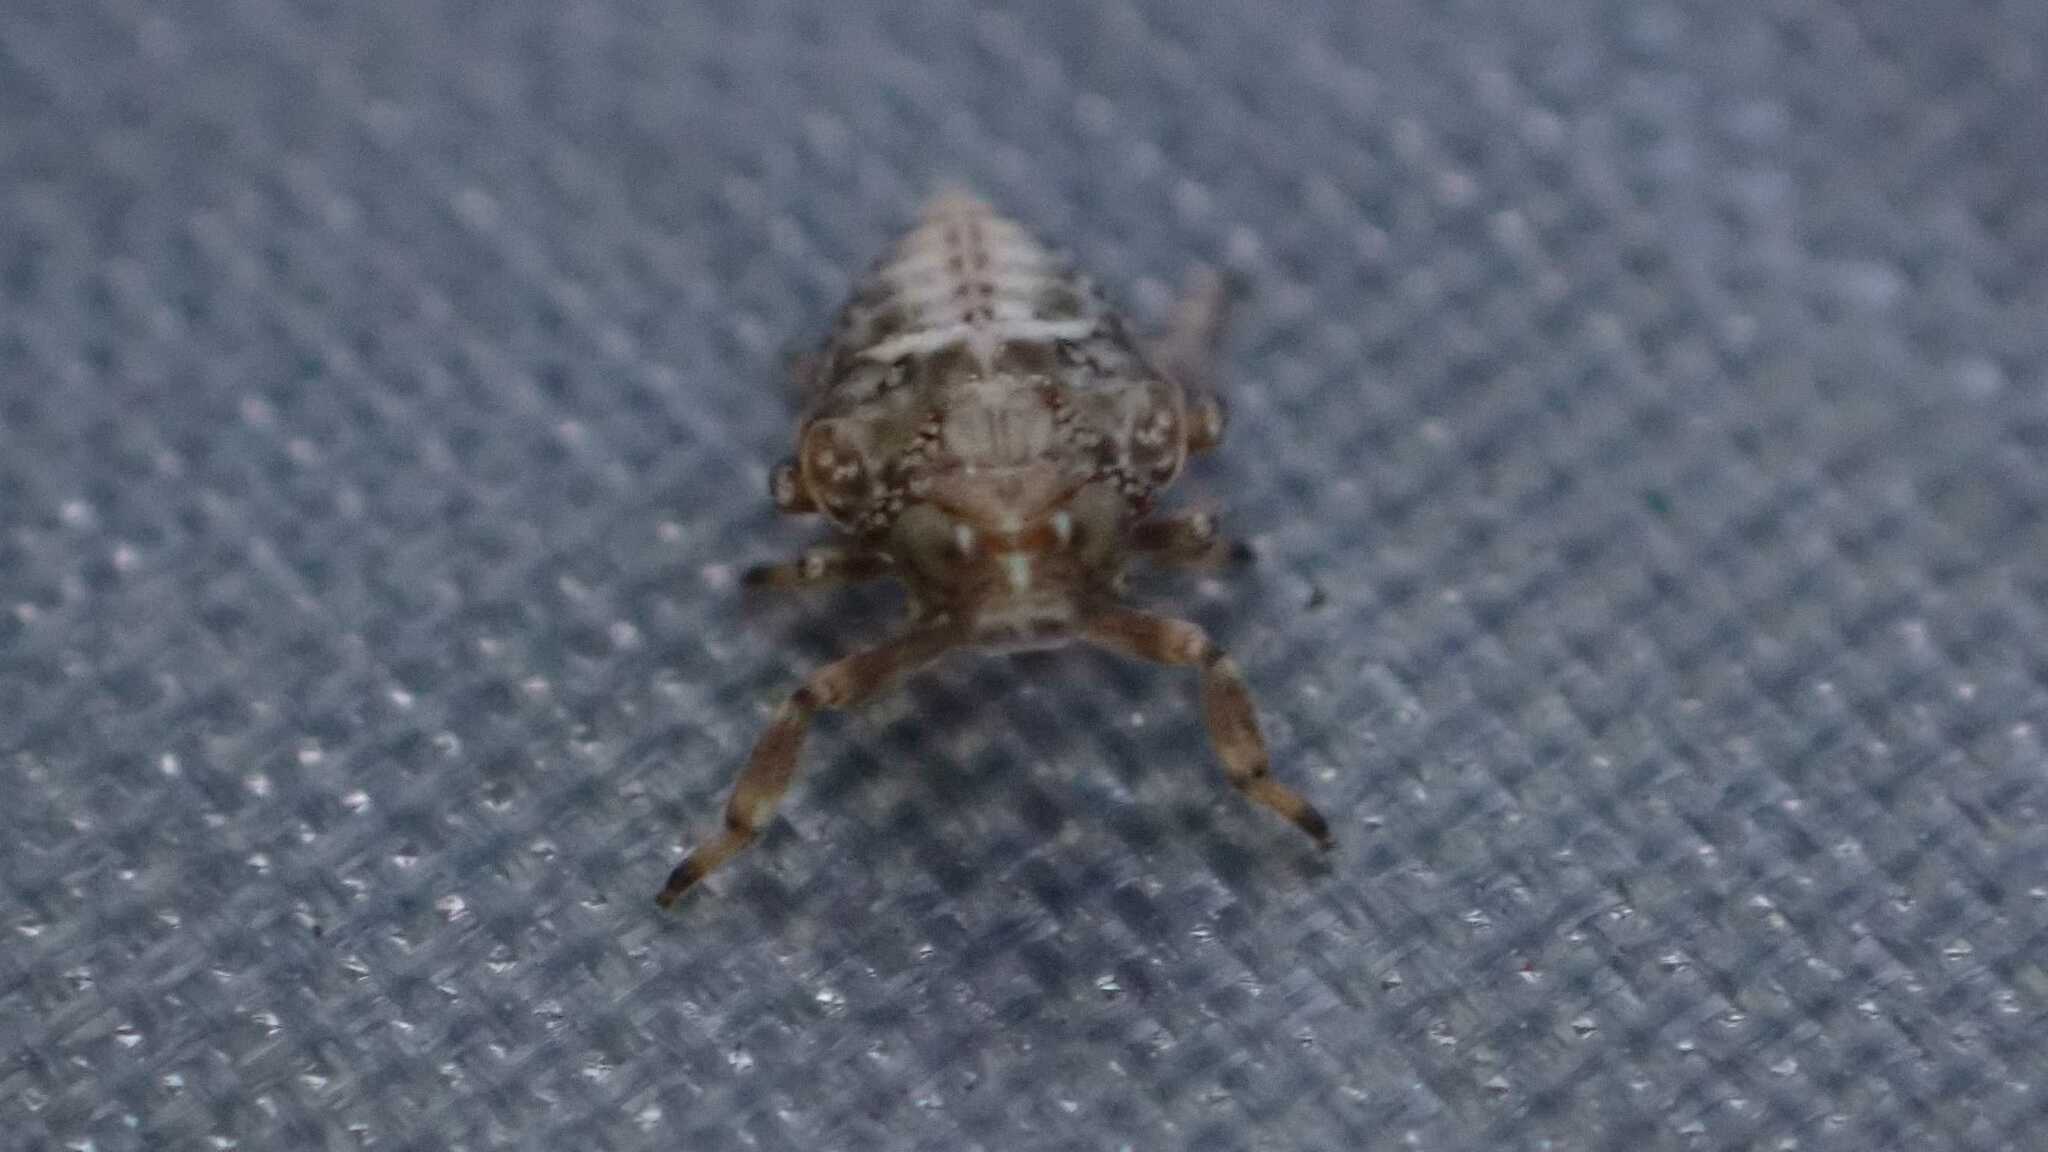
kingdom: Animalia
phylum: Arthropoda
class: Insecta
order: Hemiptera
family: Issidae
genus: Issus
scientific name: Issus coleoptratus
